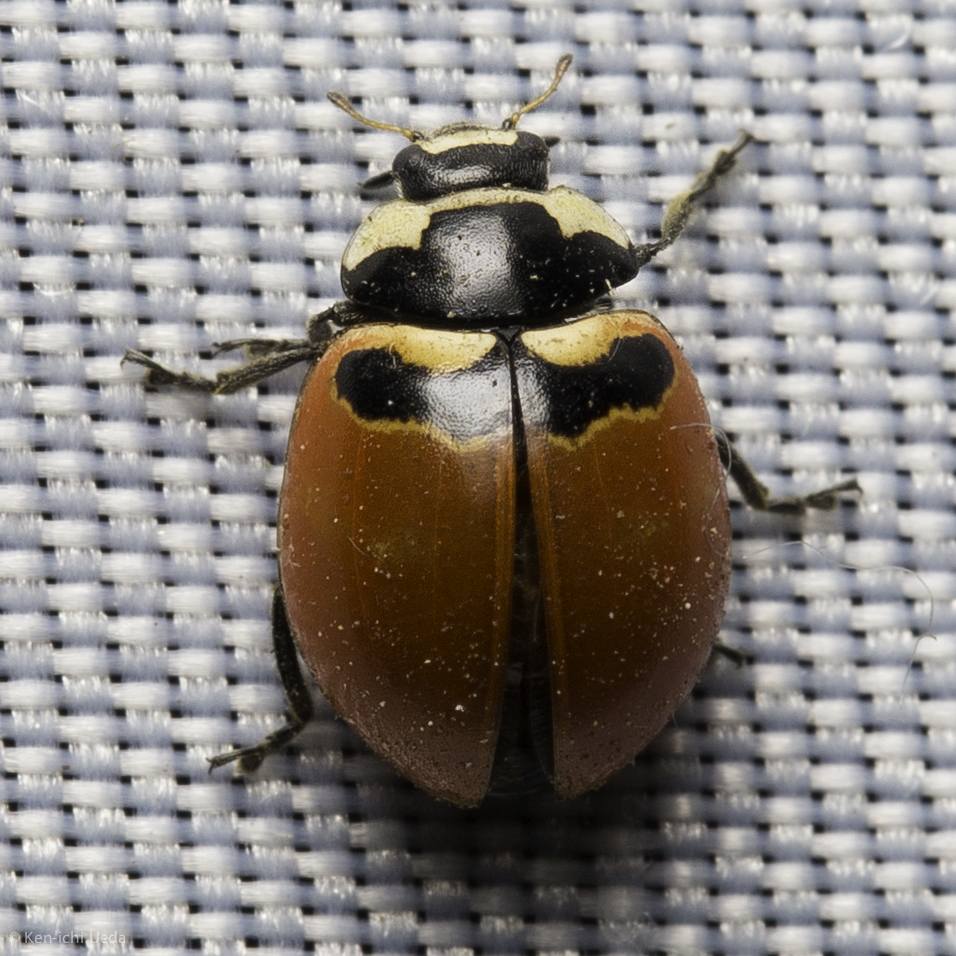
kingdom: Animalia
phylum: Arthropoda
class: Insecta
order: Coleoptera
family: Coccinellidae
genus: Coccinella
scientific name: Coccinella trifasciata
